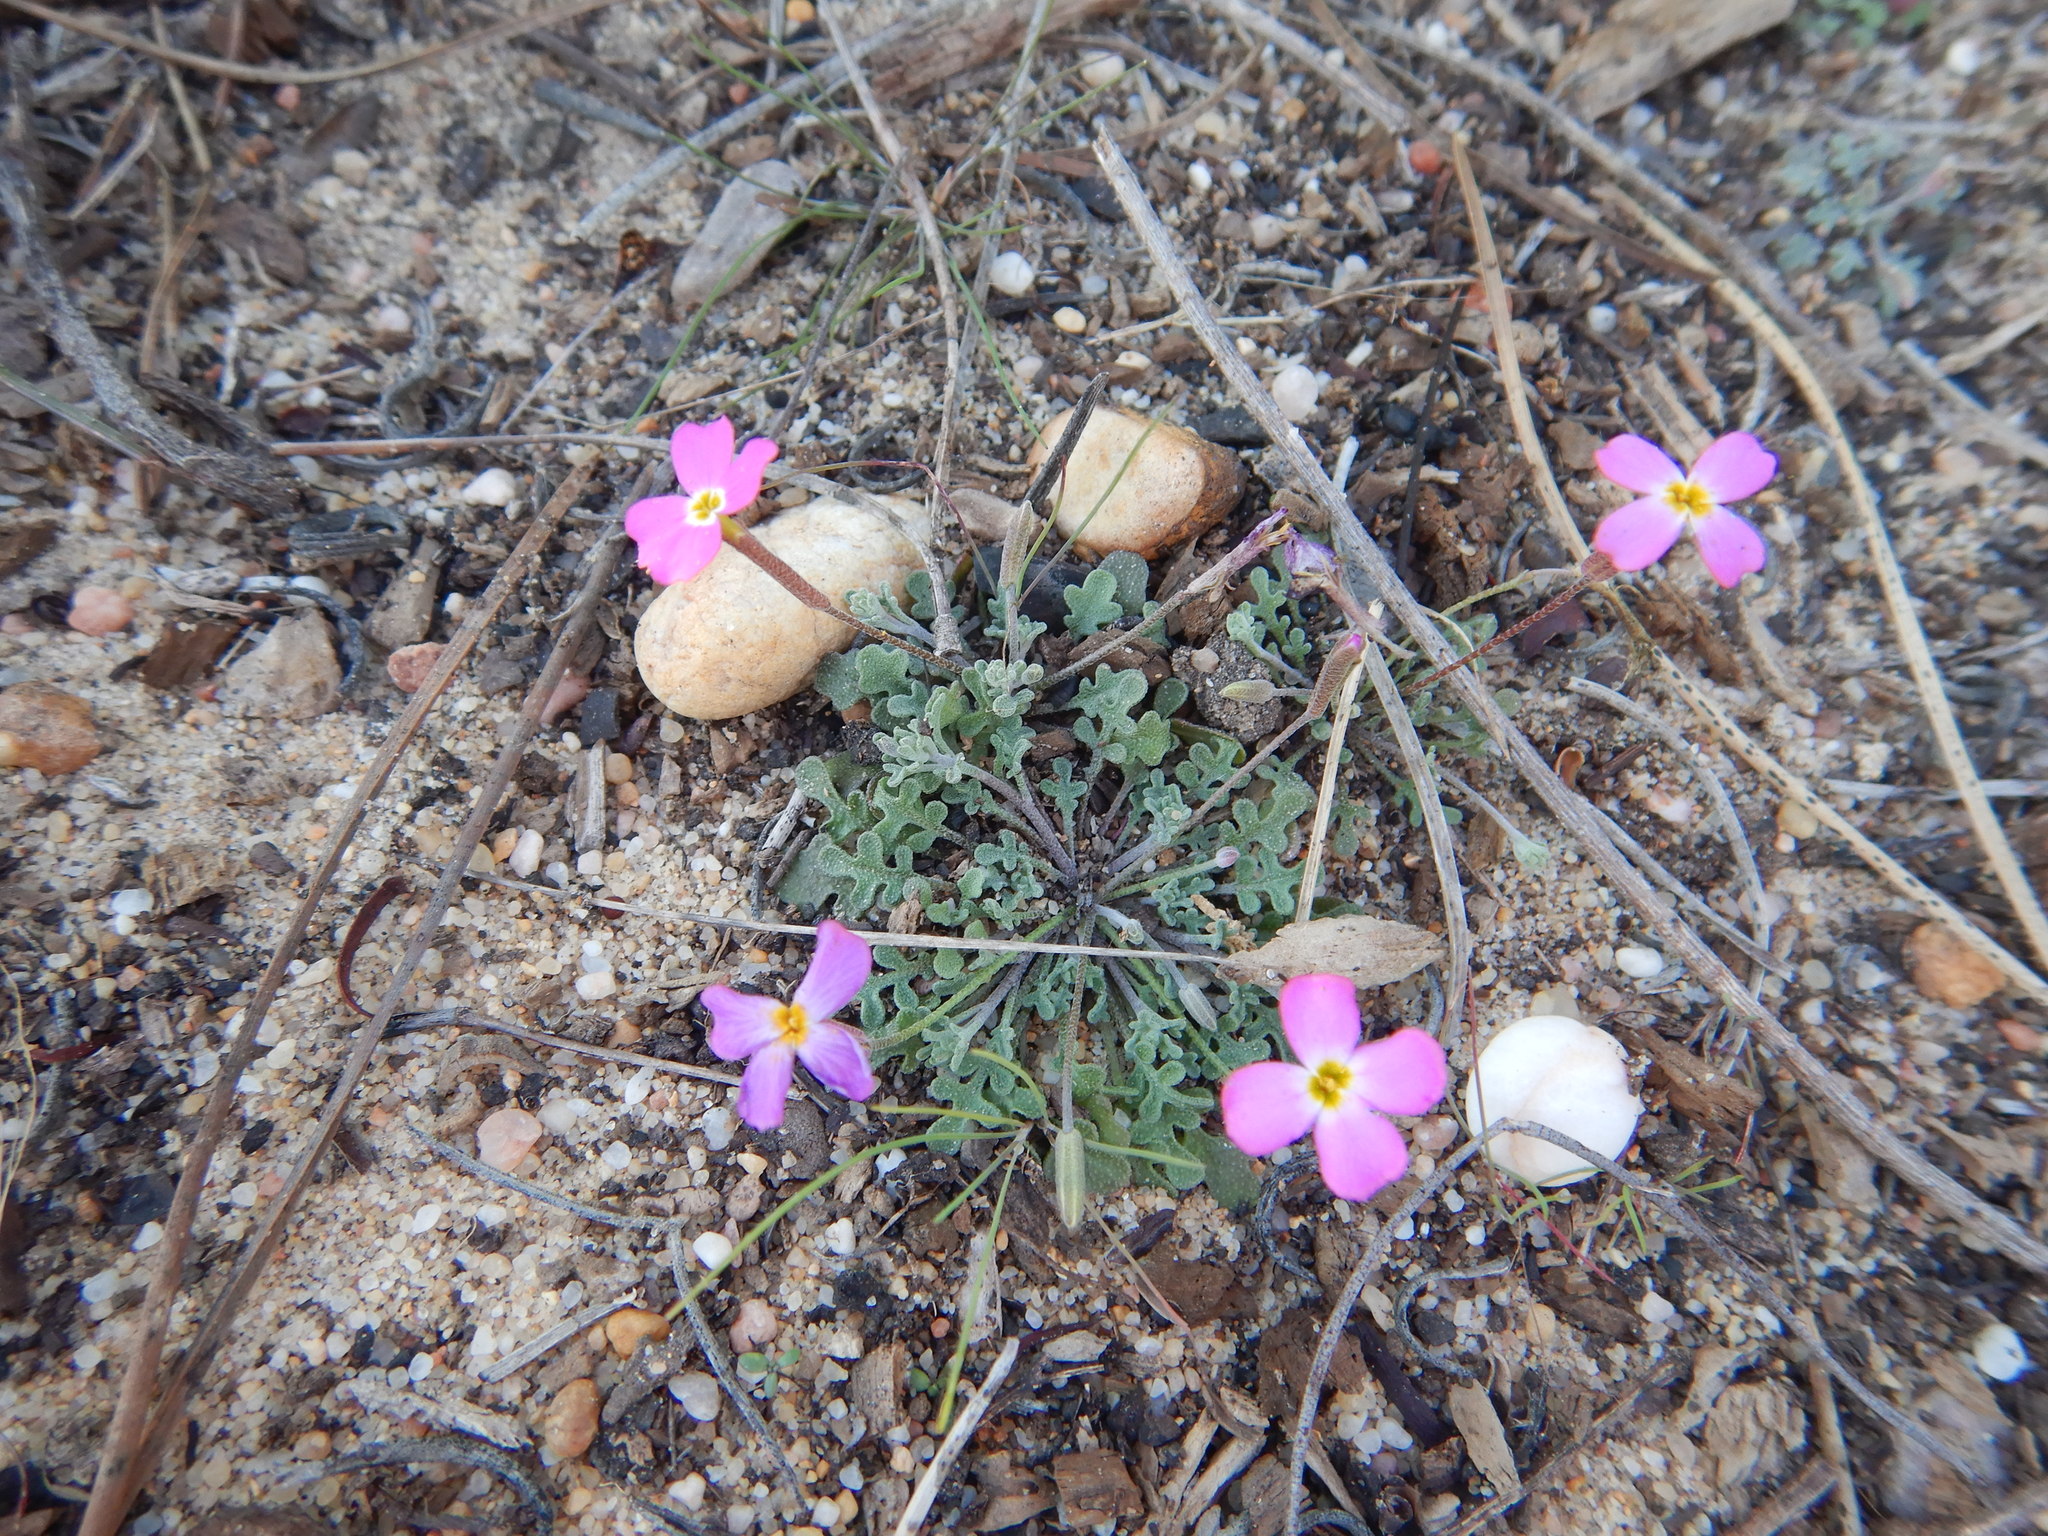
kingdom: Plantae
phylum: Tracheophyta
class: Magnoliopsida
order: Brassicales
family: Brassicaceae
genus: Marcuskochia
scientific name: Marcuskochia triloba
